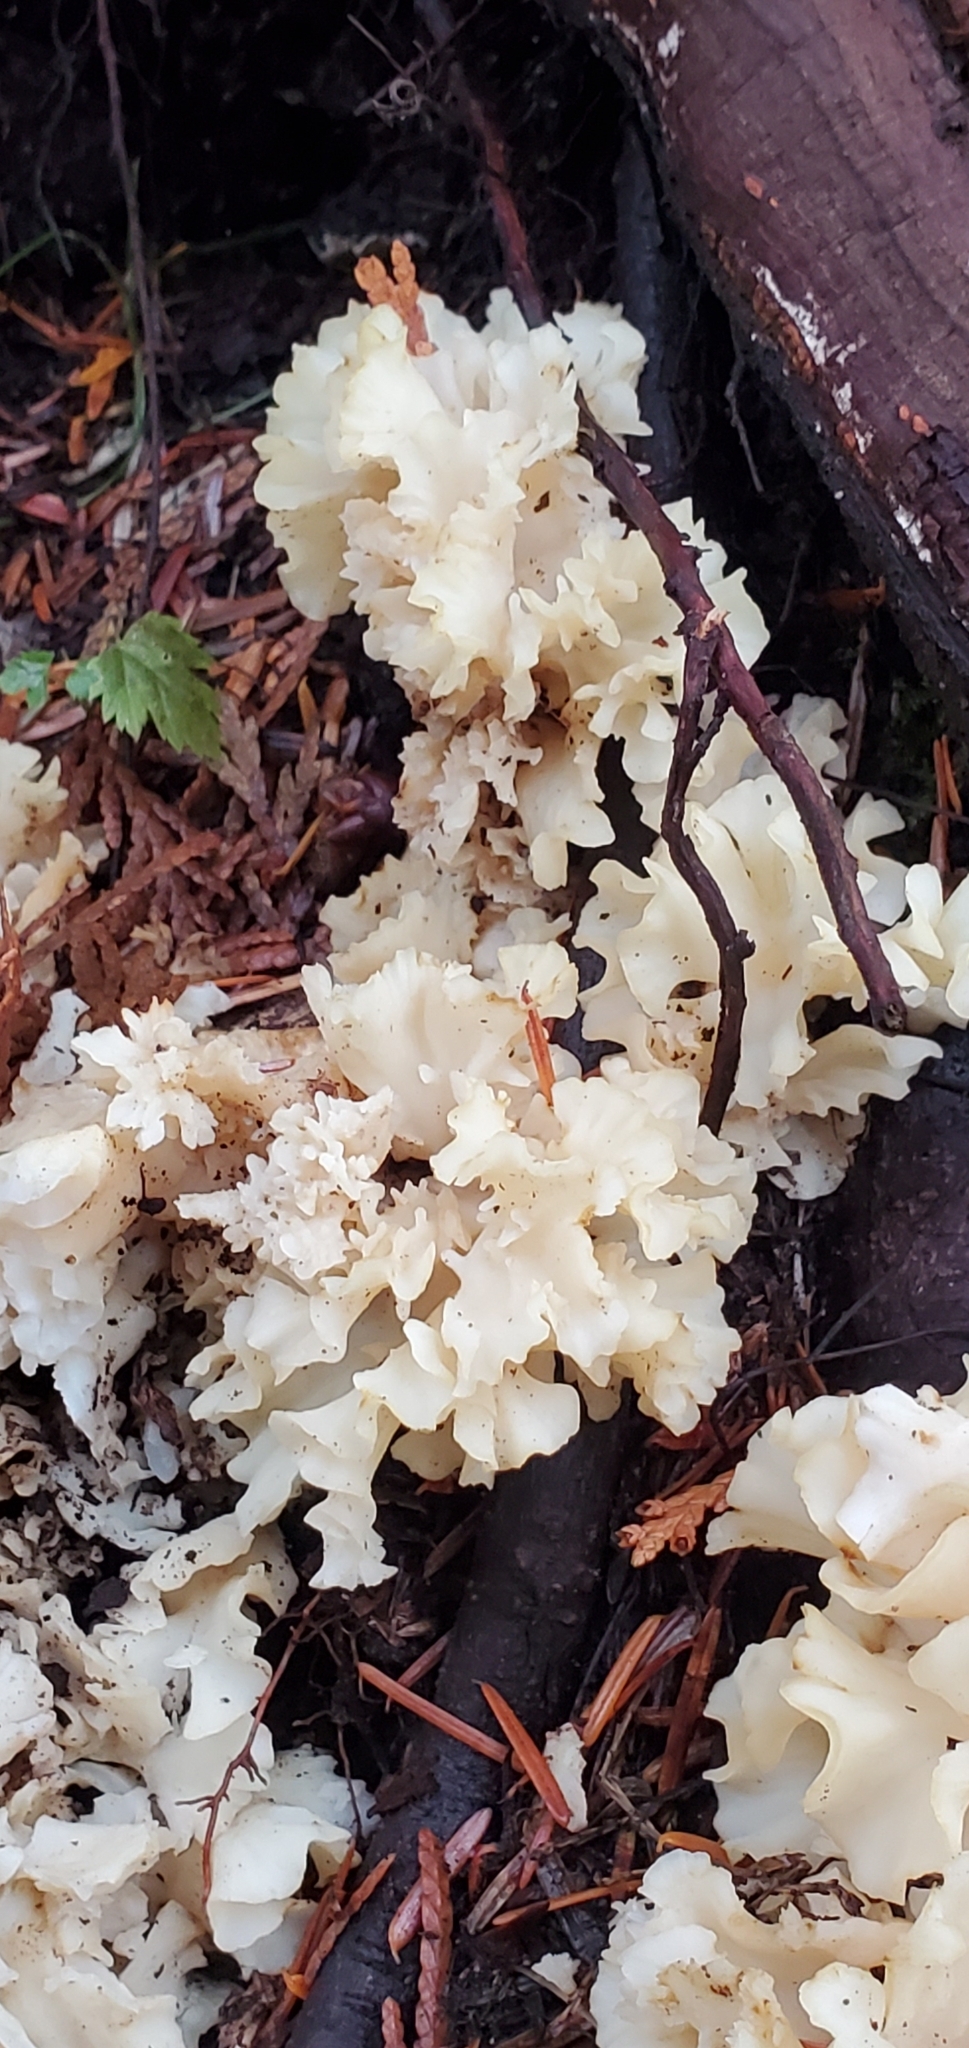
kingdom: Fungi
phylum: Basidiomycota
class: Agaricomycetes
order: Polyporales
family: Sparassidaceae
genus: Sparassis
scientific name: Sparassis radicata
